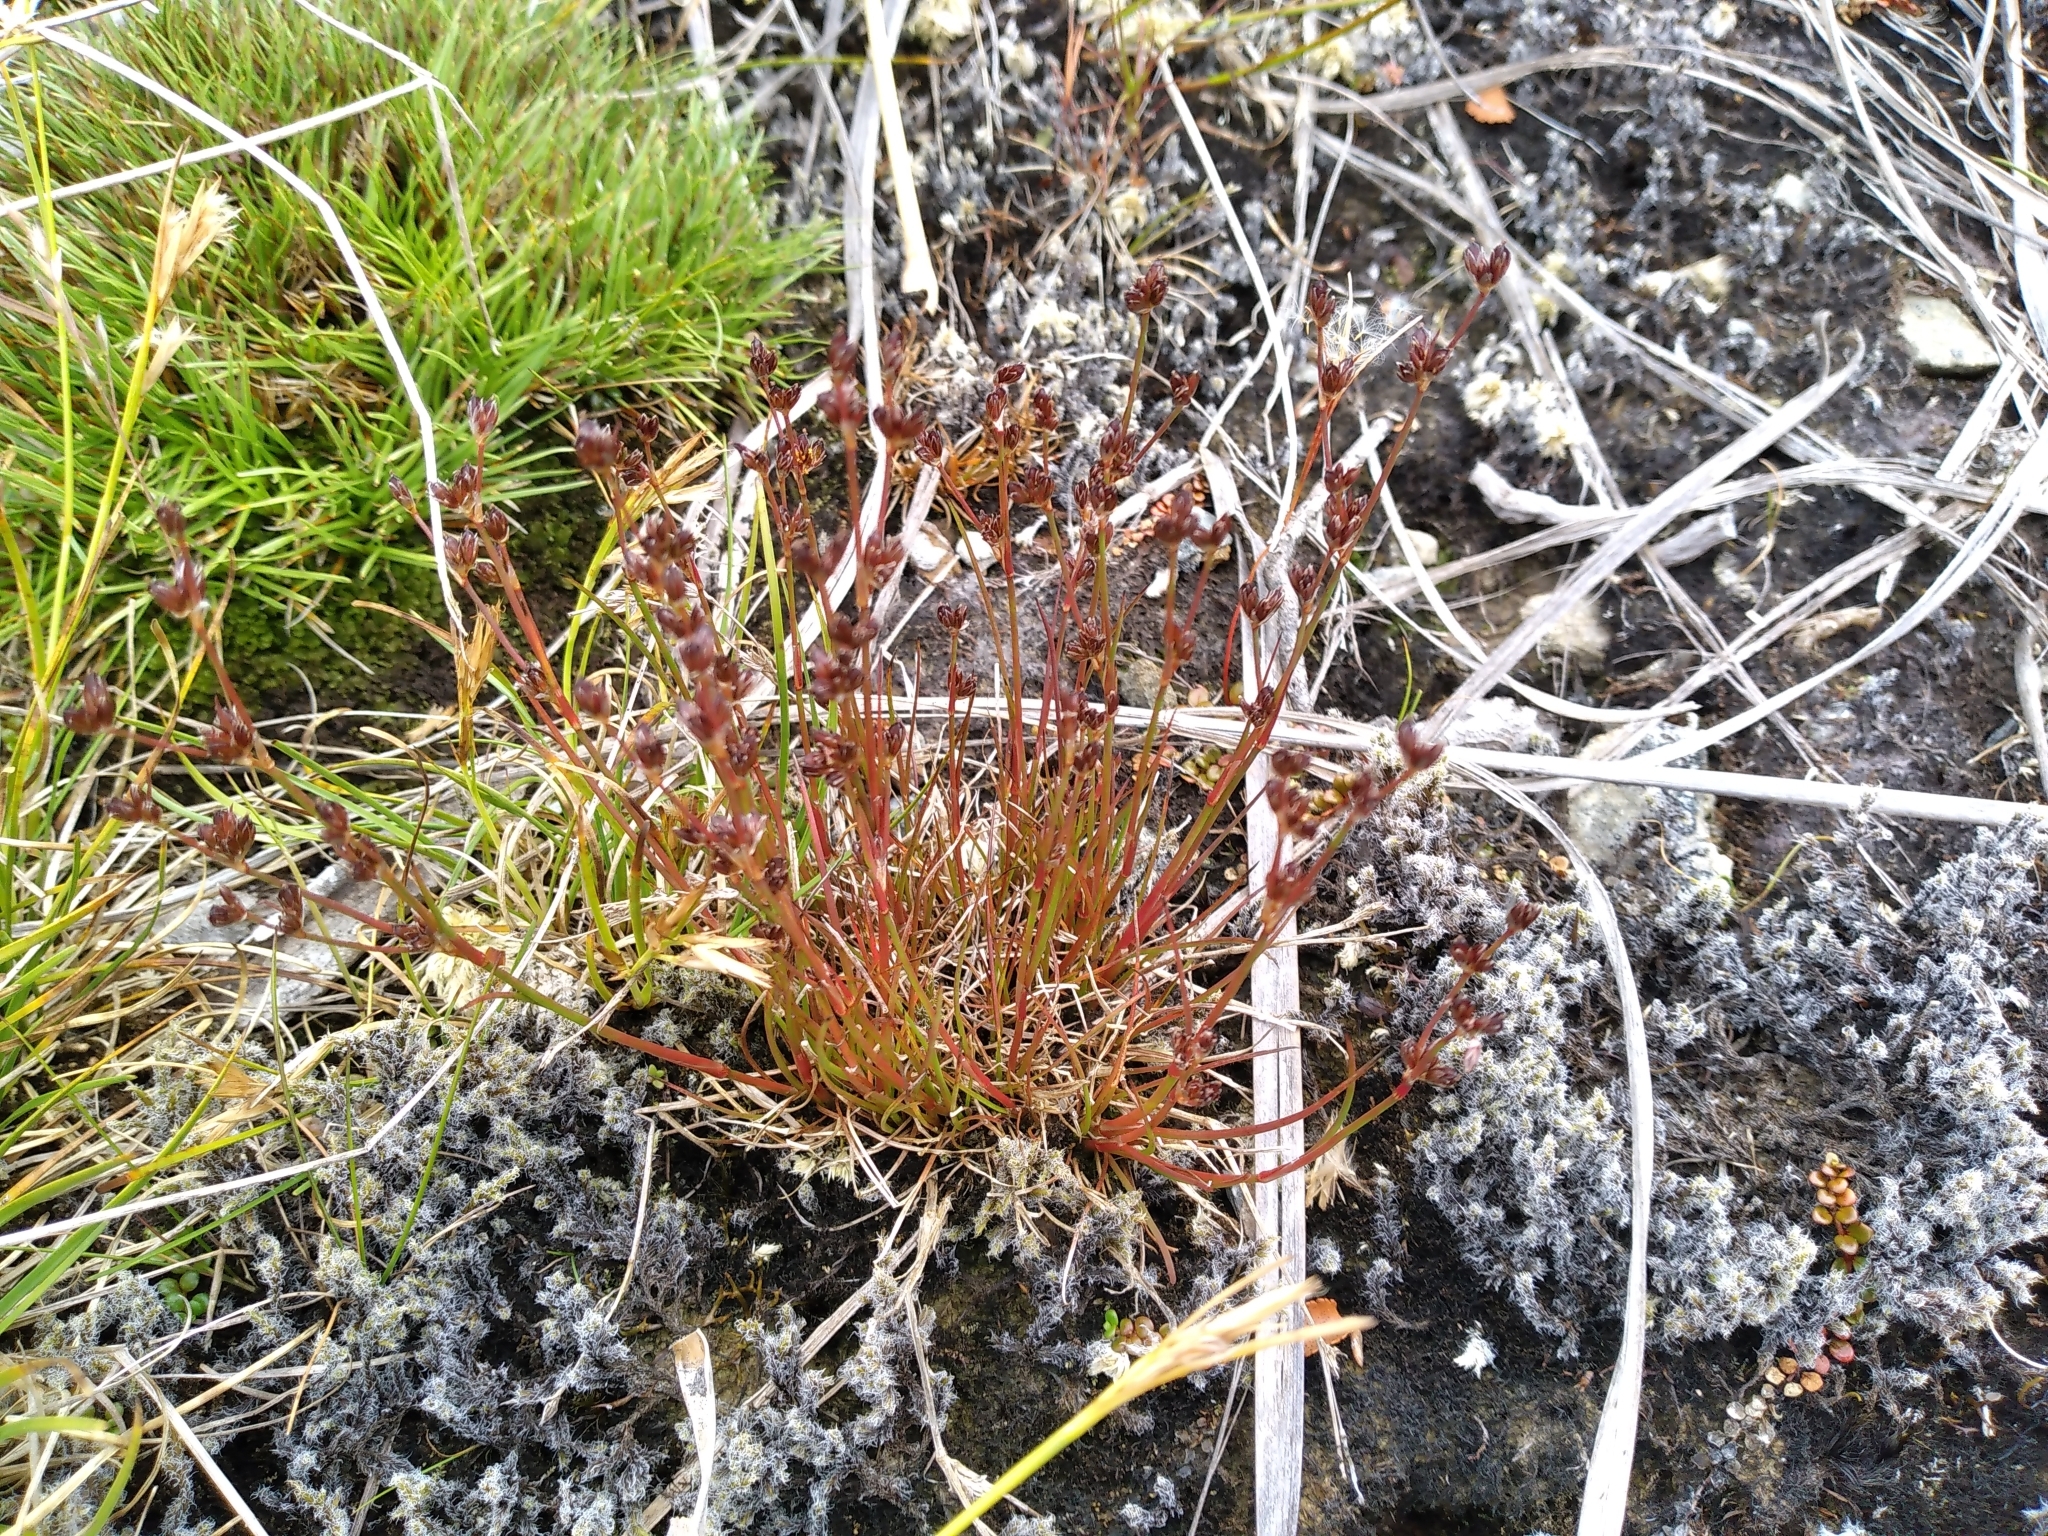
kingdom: Plantae
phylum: Tracheophyta
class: Liliopsida
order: Poales
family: Juncaceae
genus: Juncus
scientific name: Juncus bulbosus
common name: Bulbous rush
